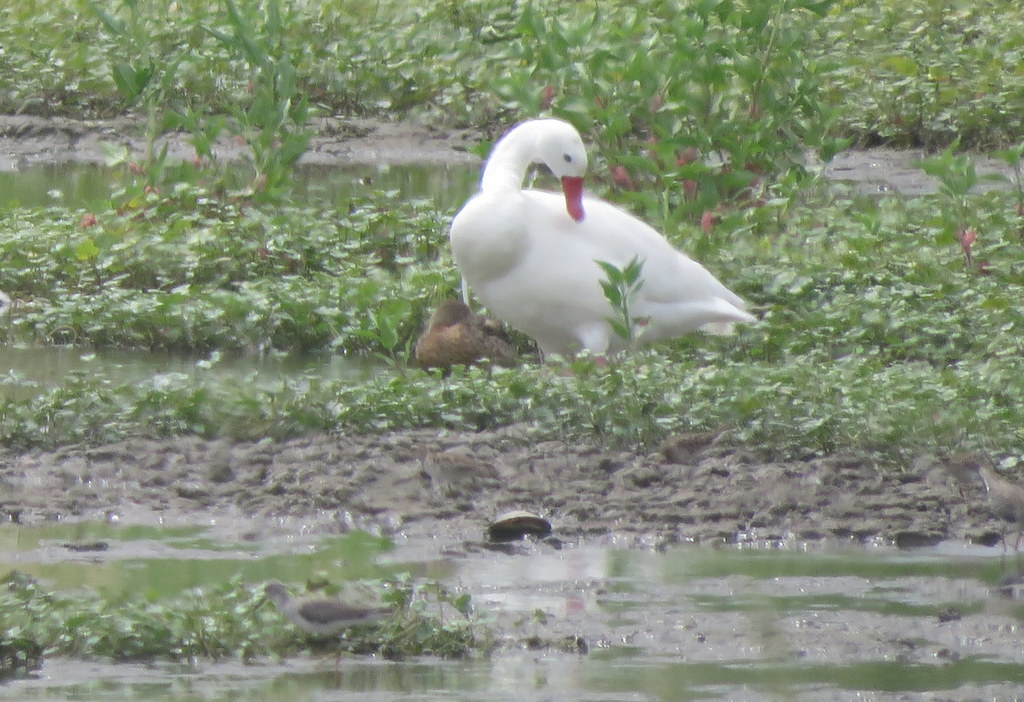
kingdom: Animalia
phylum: Chordata
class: Aves
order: Anseriformes
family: Anatidae
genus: Coscoroba
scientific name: Coscoroba coscoroba
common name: Coscoroba swan
